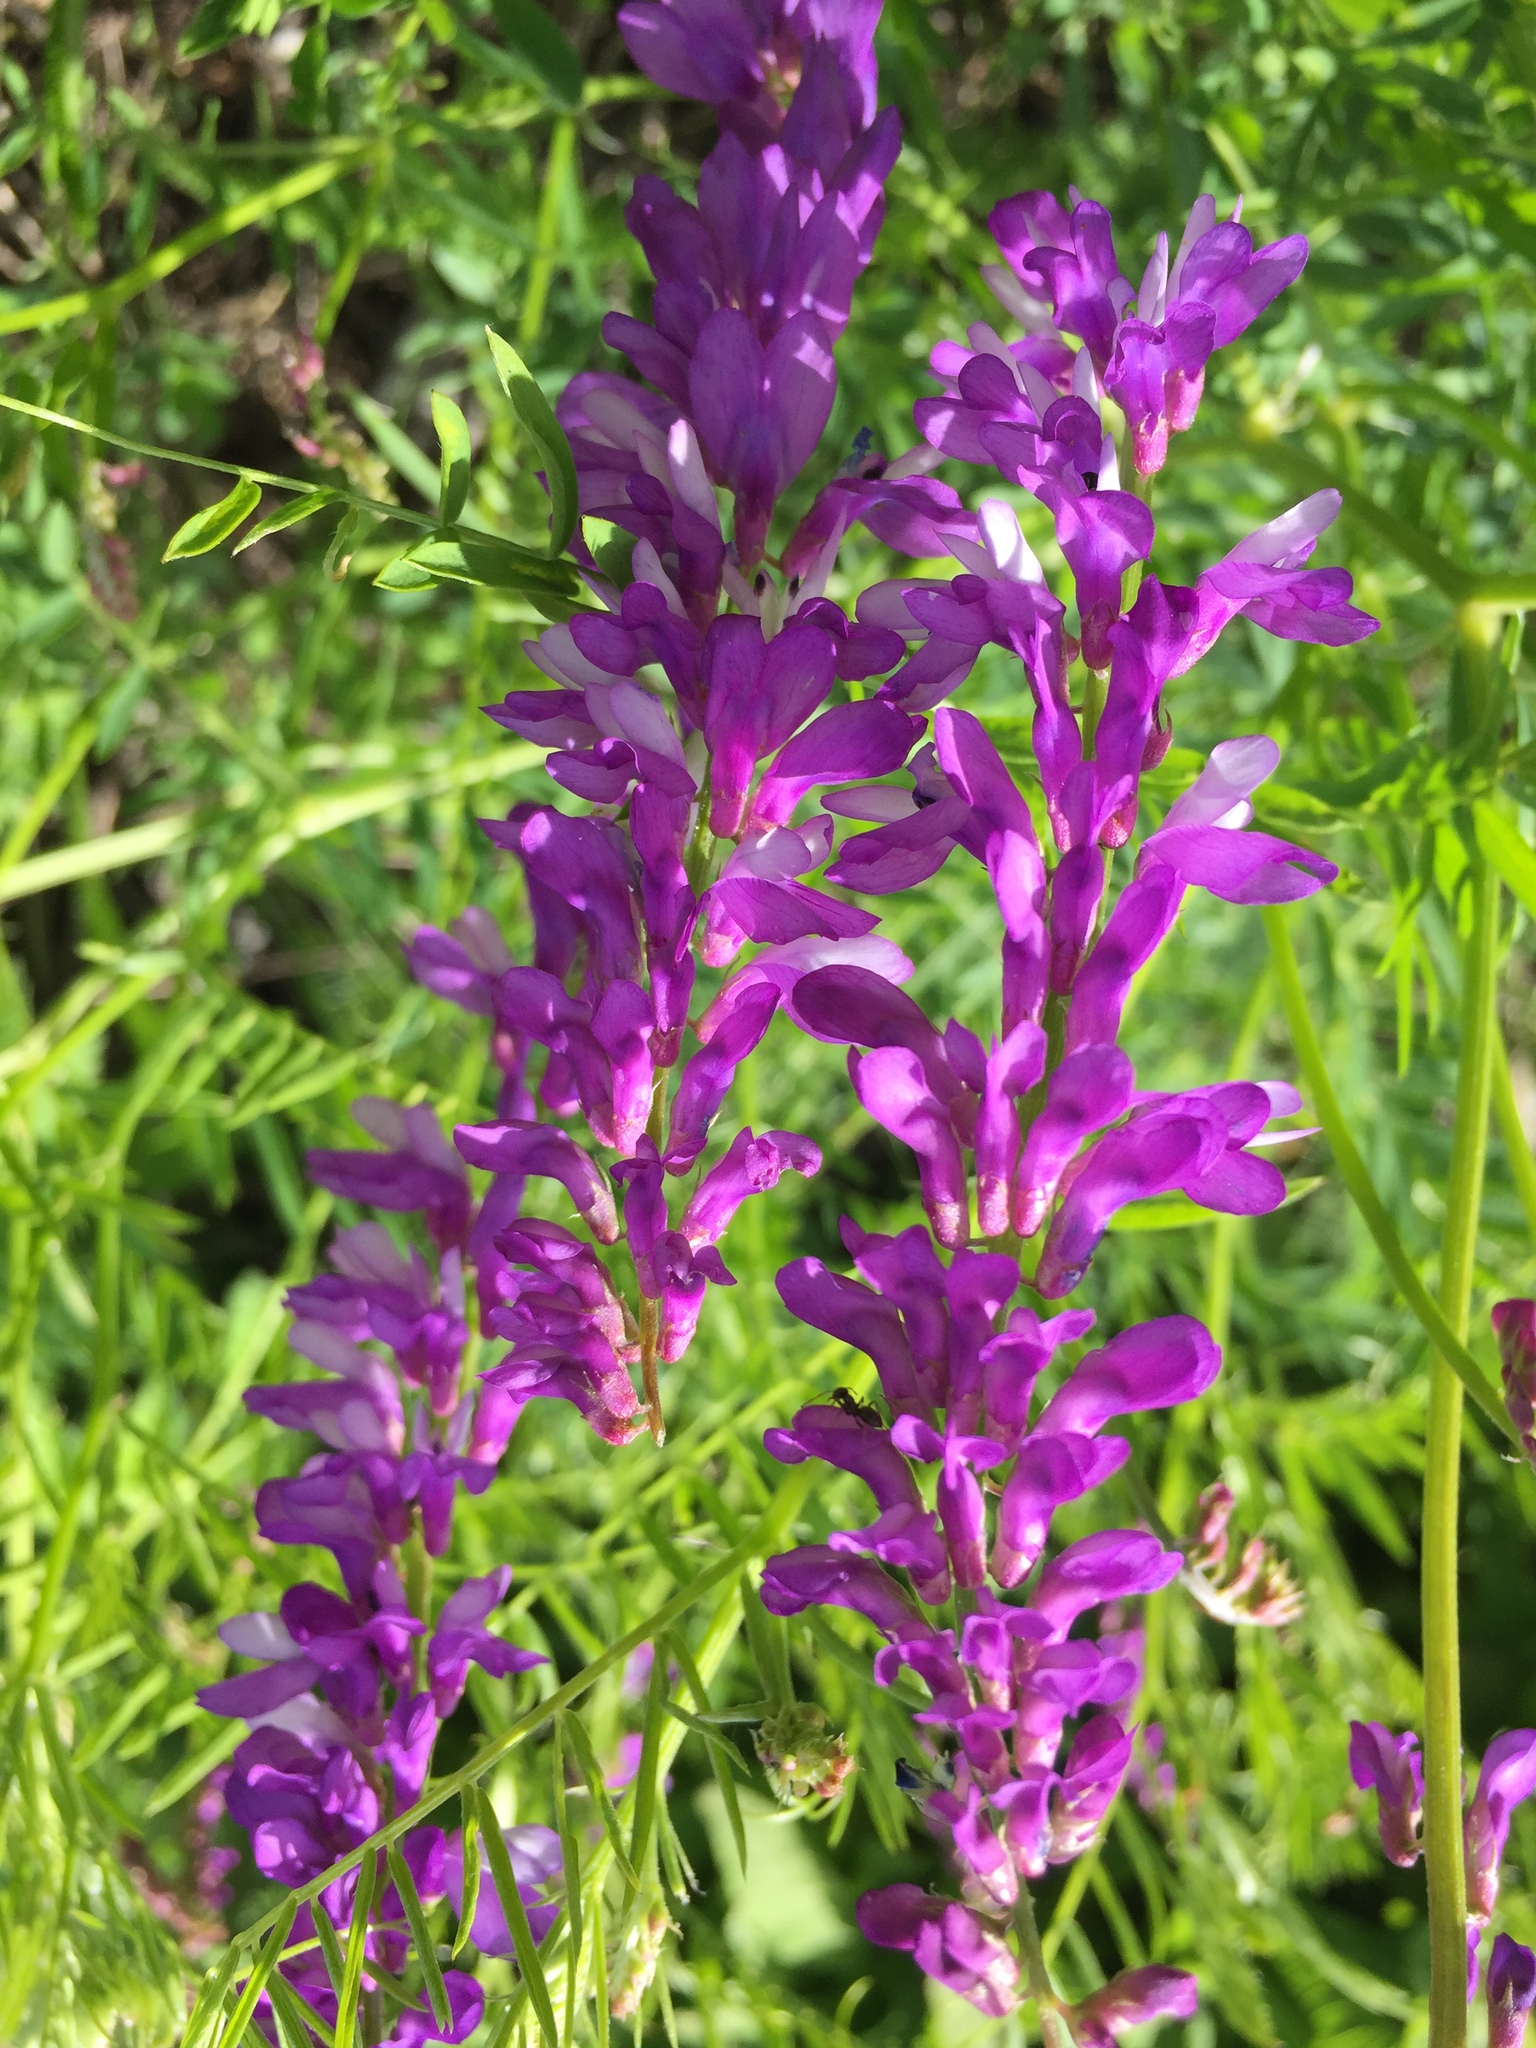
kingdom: Plantae
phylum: Tracheophyta
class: Magnoliopsida
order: Fabales
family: Fabaceae
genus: Vicia
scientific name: Vicia cracca
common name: Bird vetch
